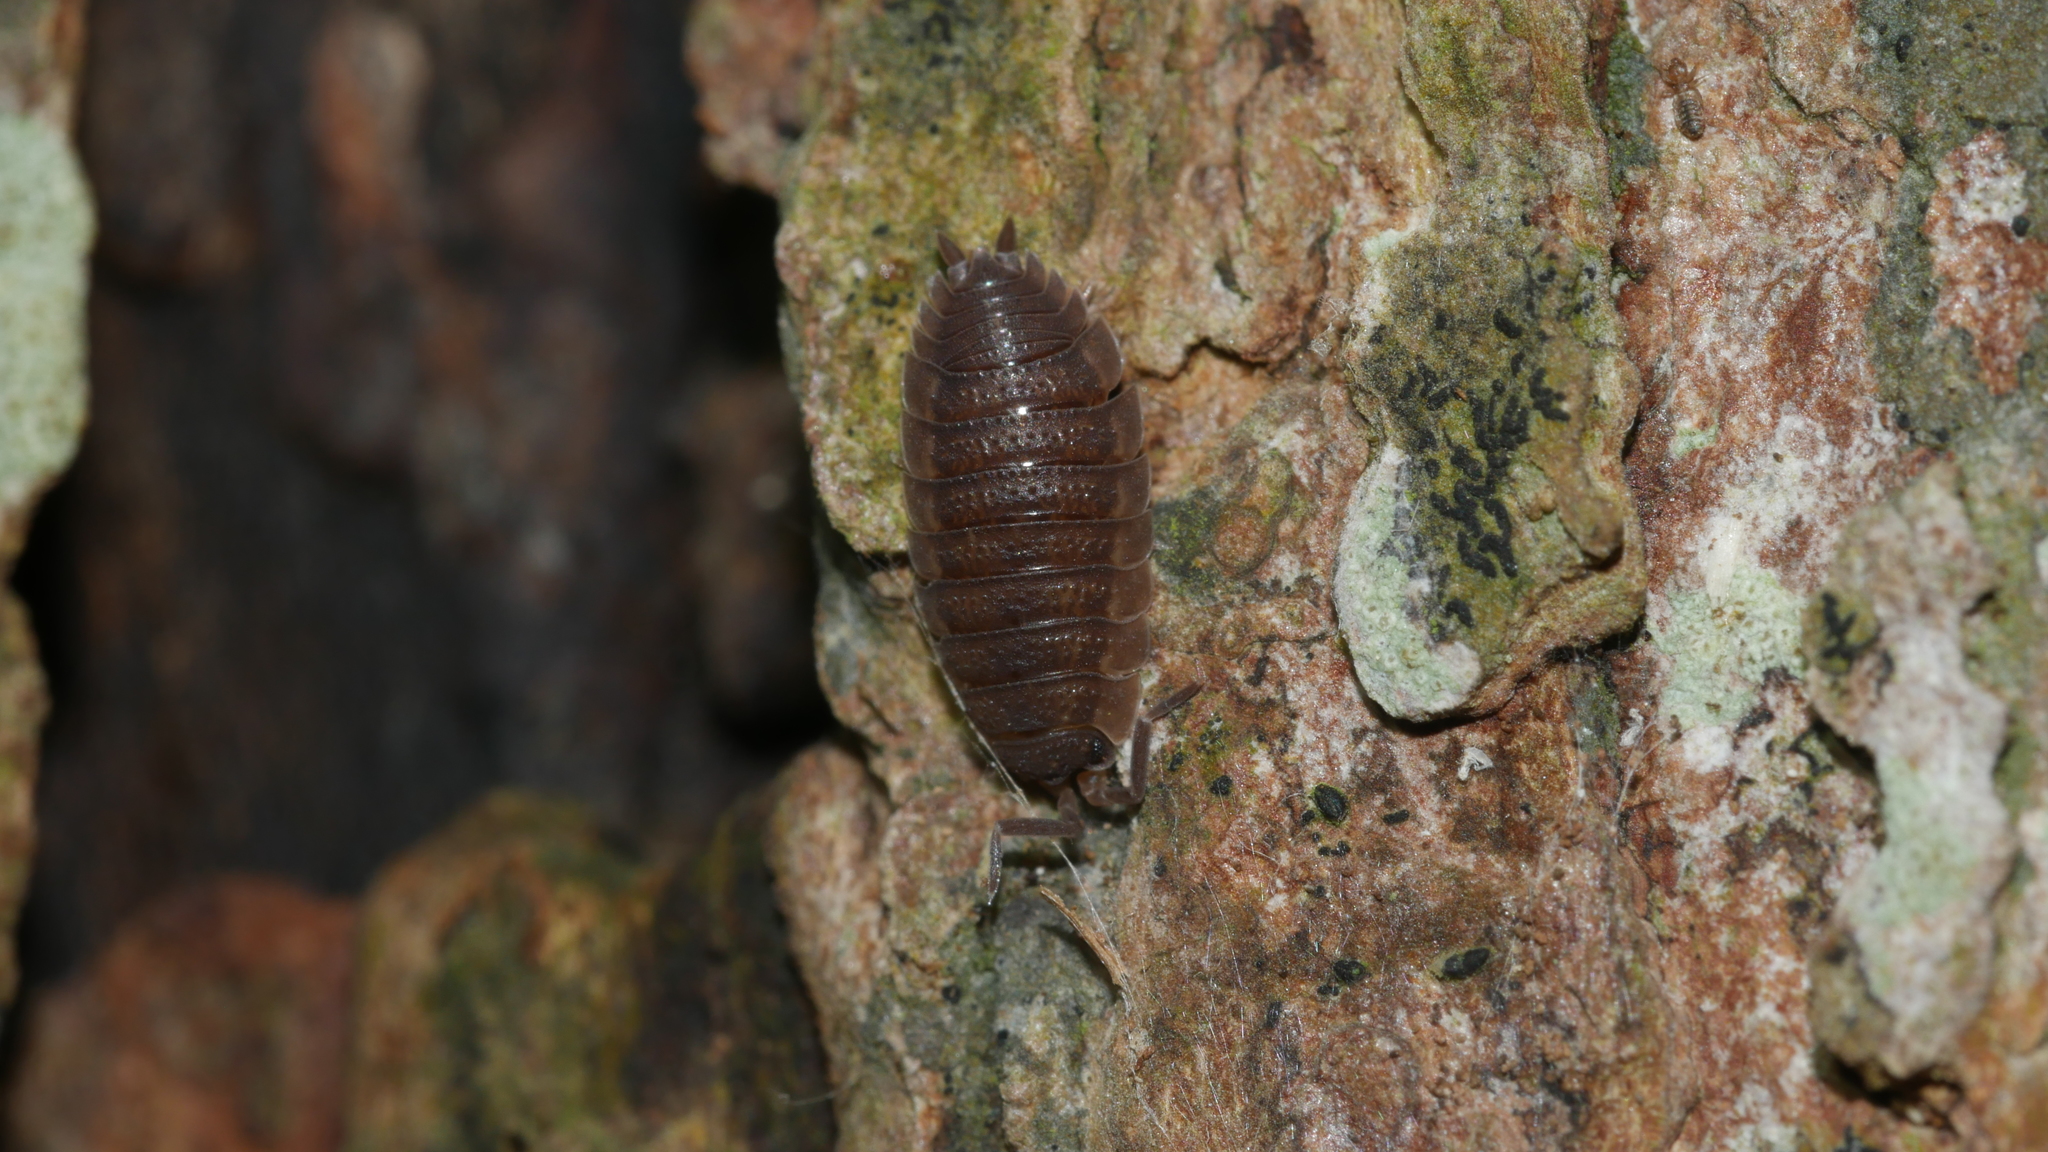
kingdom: Animalia
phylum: Arthropoda
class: Malacostraca
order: Isopoda
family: Porcellionidae
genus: Porcellio
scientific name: Porcellio scaber
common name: Common rough woodlouse
